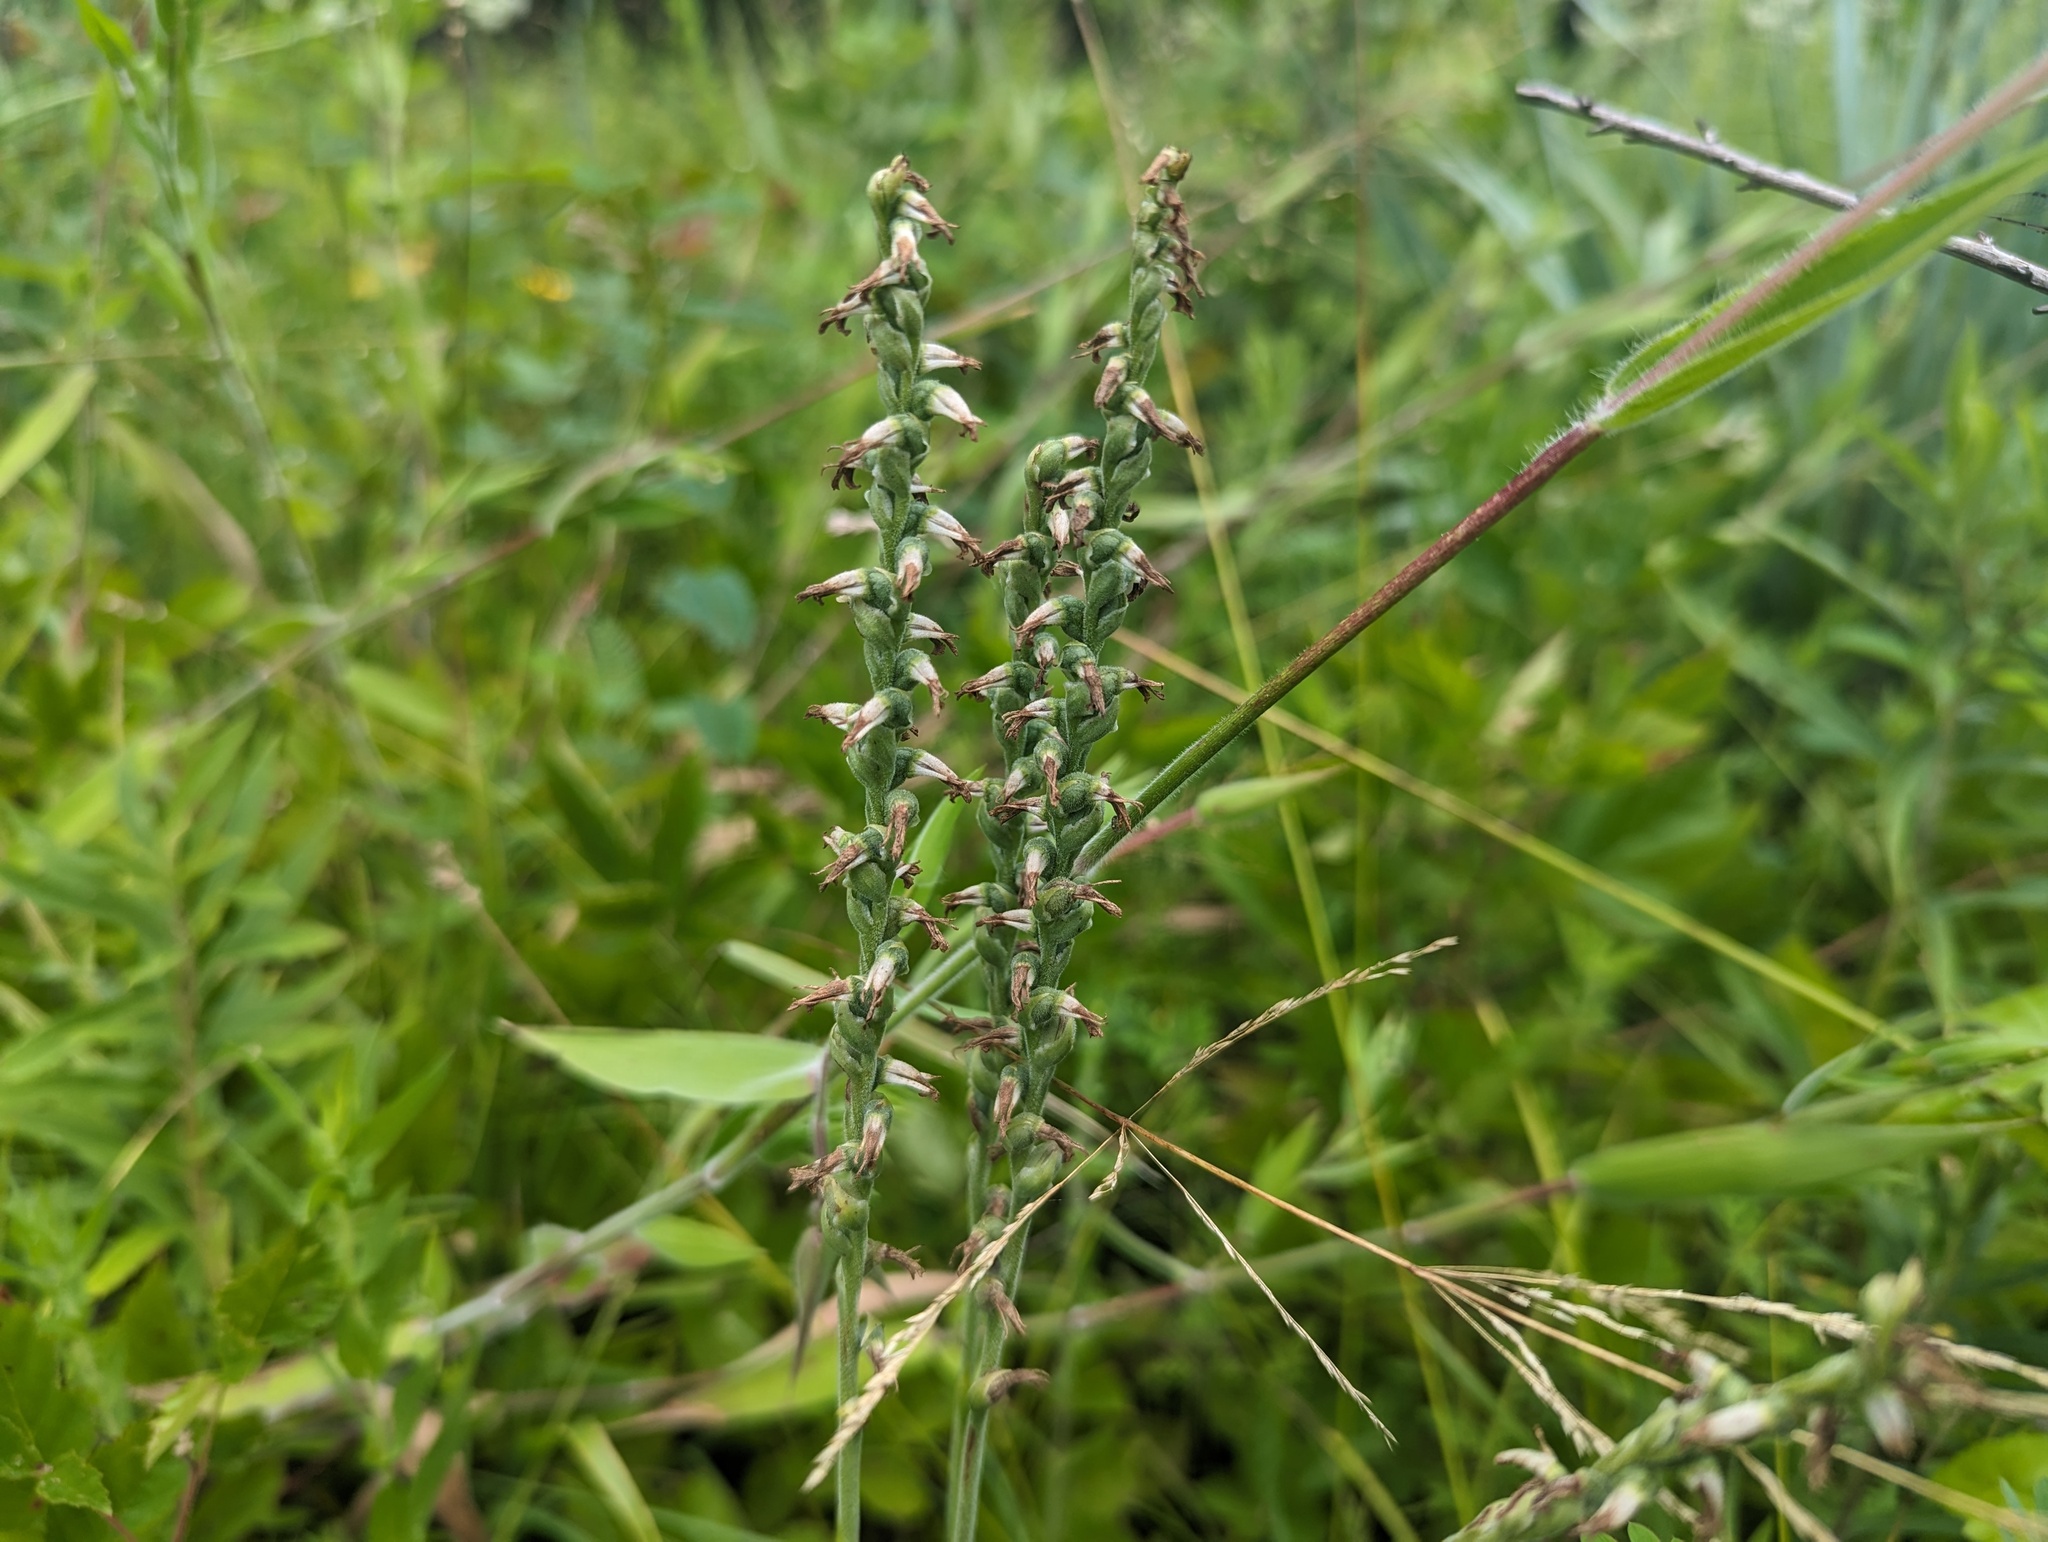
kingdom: Plantae
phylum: Tracheophyta
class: Liliopsida
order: Asparagales
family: Orchidaceae
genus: Spiranthes
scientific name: Spiranthes vernalis
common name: Spring ladies'-tresses
